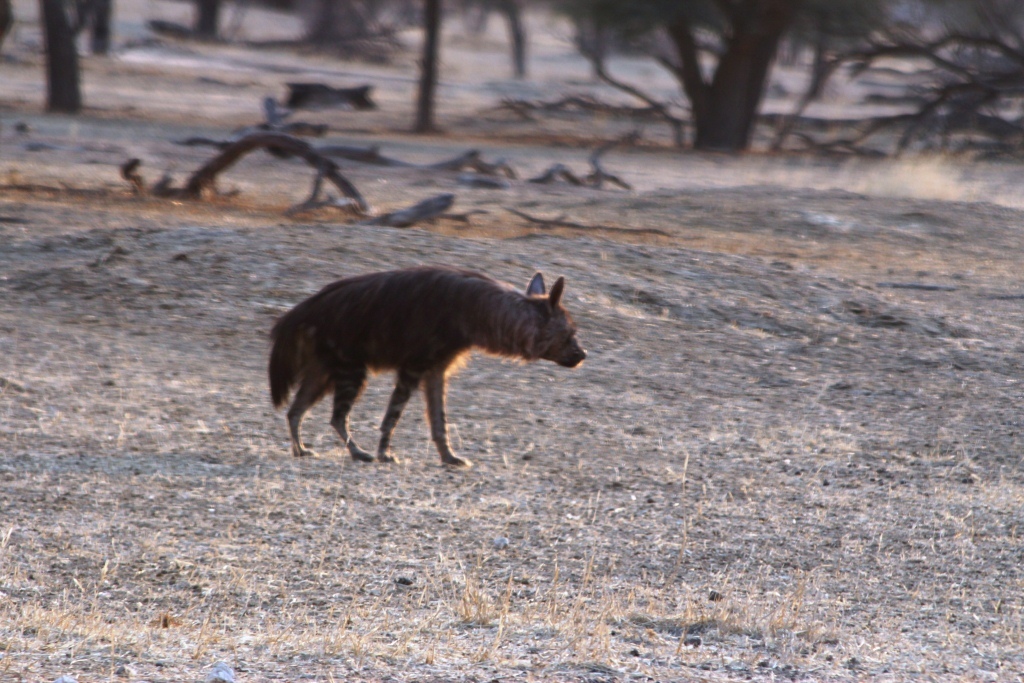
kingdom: Animalia
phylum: Chordata
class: Mammalia
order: Carnivora
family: Hyaenidae
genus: Hyaena
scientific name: Hyaena brunnea
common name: Brown hyena
